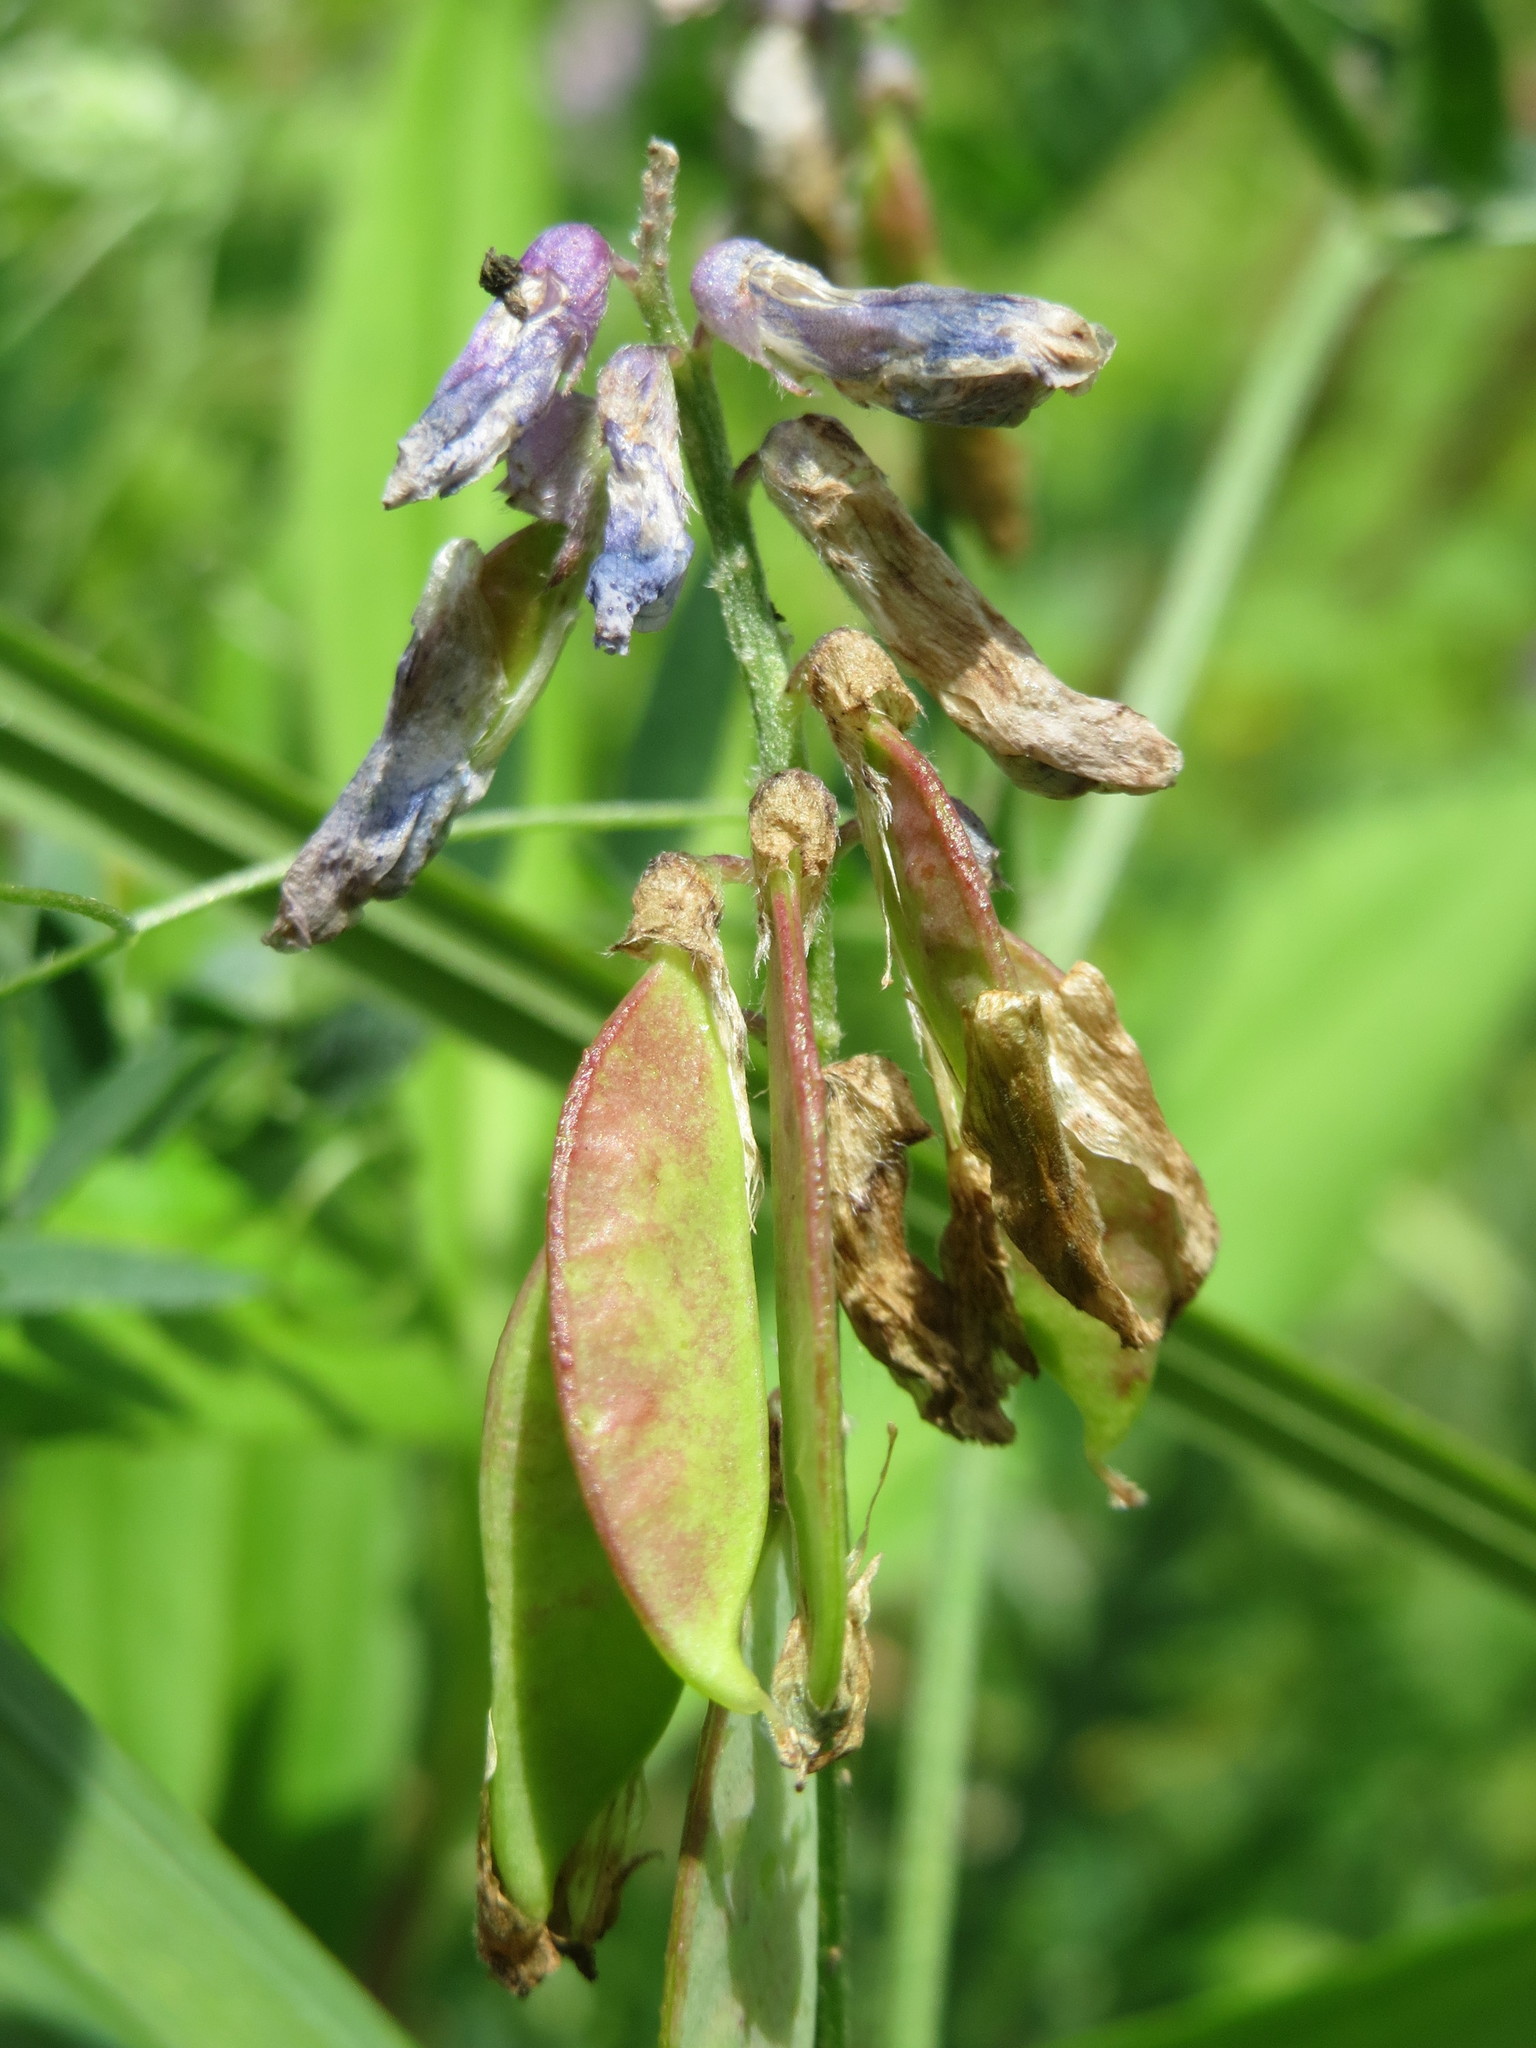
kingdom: Plantae
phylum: Tracheophyta
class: Magnoliopsida
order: Fabales
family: Fabaceae
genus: Vicia
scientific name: Vicia cracca
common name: Bird vetch
